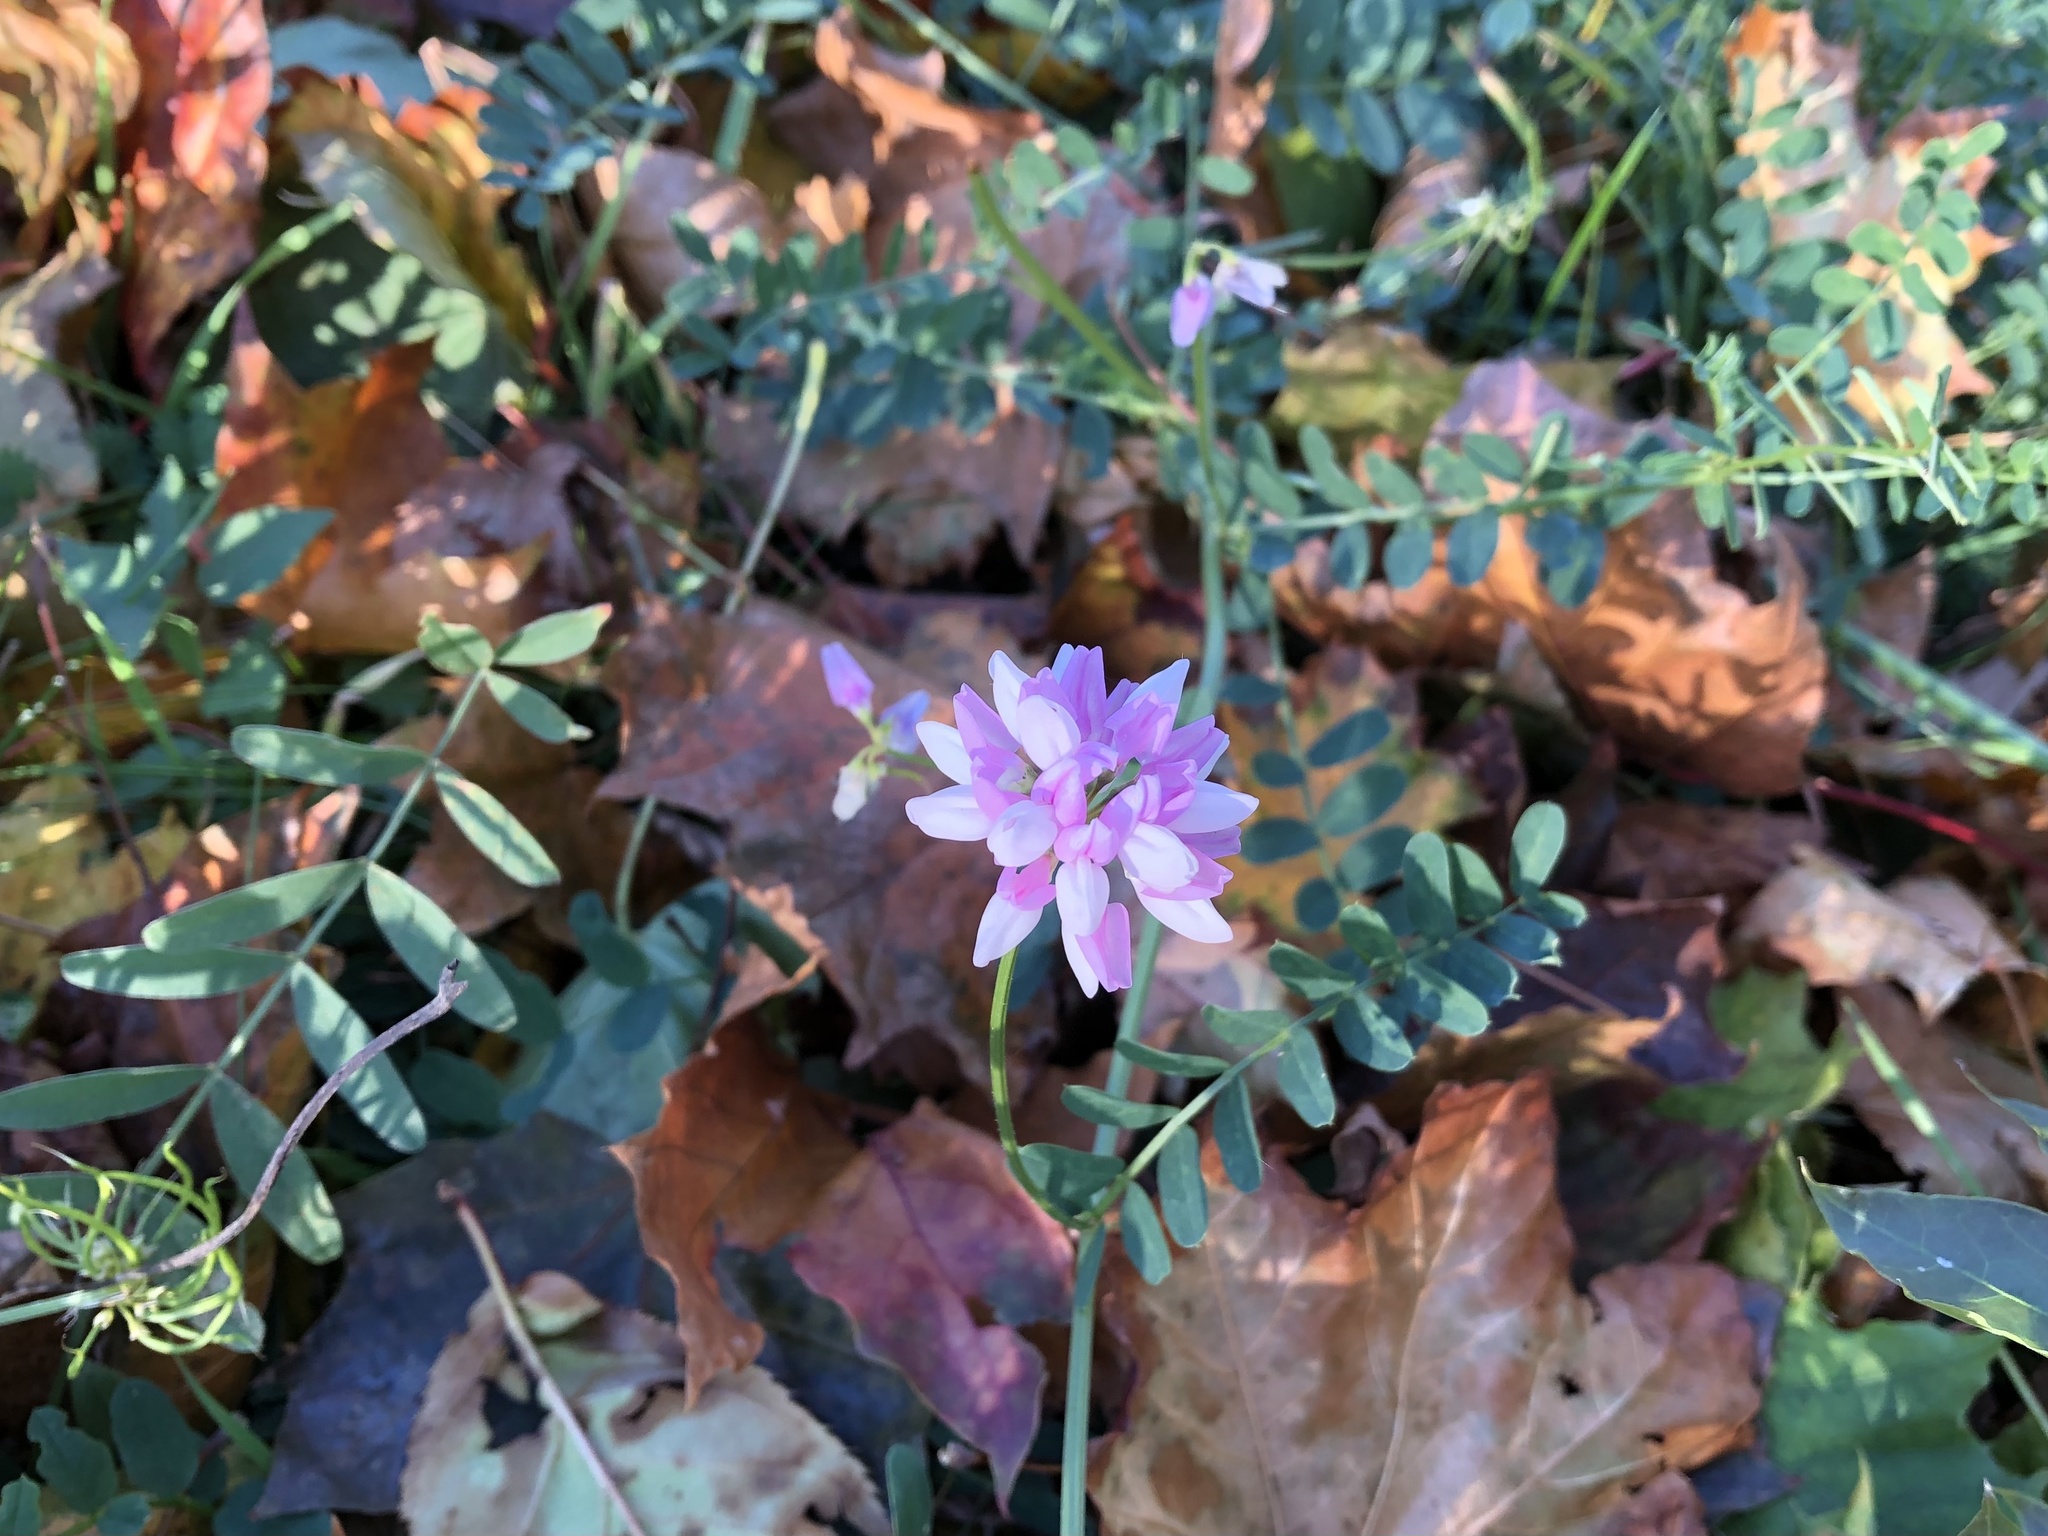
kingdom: Plantae
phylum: Tracheophyta
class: Magnoliopsida
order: Fabales
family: Fabaceae
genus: Coronilla
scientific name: Coronilla varia
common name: Crownvetch
